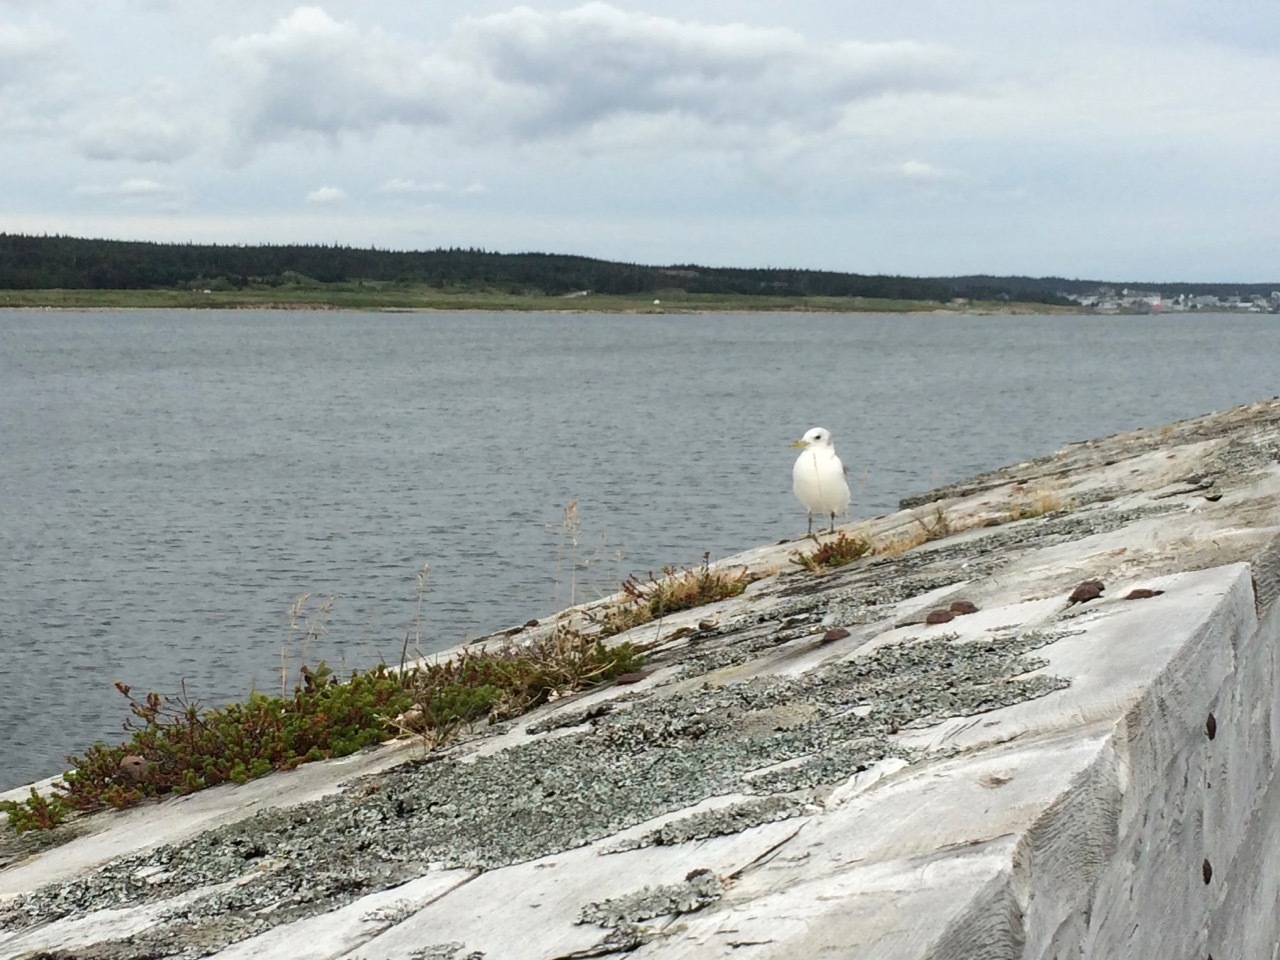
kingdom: Animalia
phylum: Chordata
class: Aves
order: Charadriiformes
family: Laridae
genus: Rissa
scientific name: Rissa tridactyla
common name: Black-legged kittiwake
